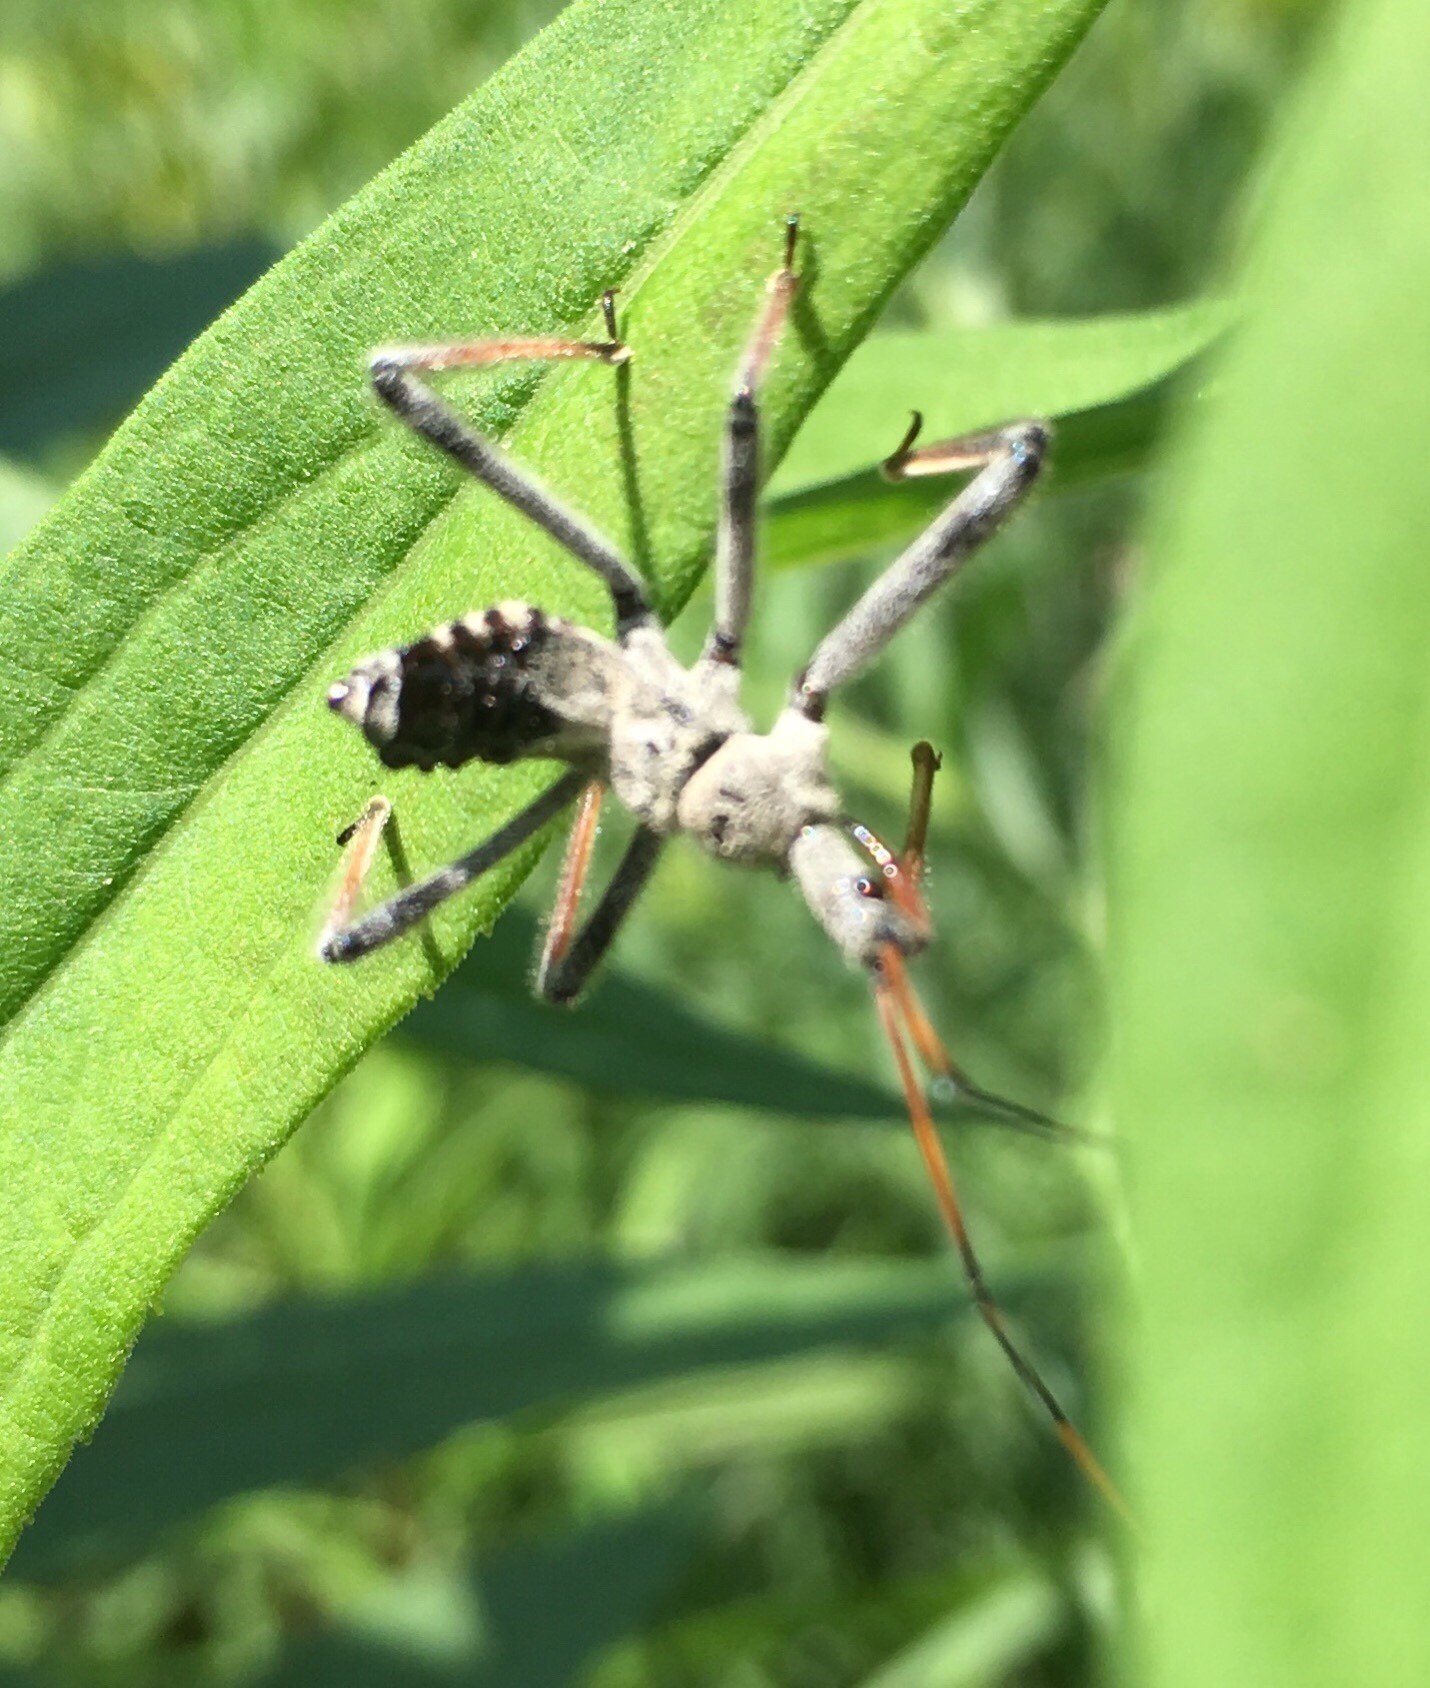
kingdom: Animalia
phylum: Arthropoda
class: Insecta
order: Hemiptera
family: Reduviidae
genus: Arilus
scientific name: Arilus cristatus
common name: North american wheel bug
